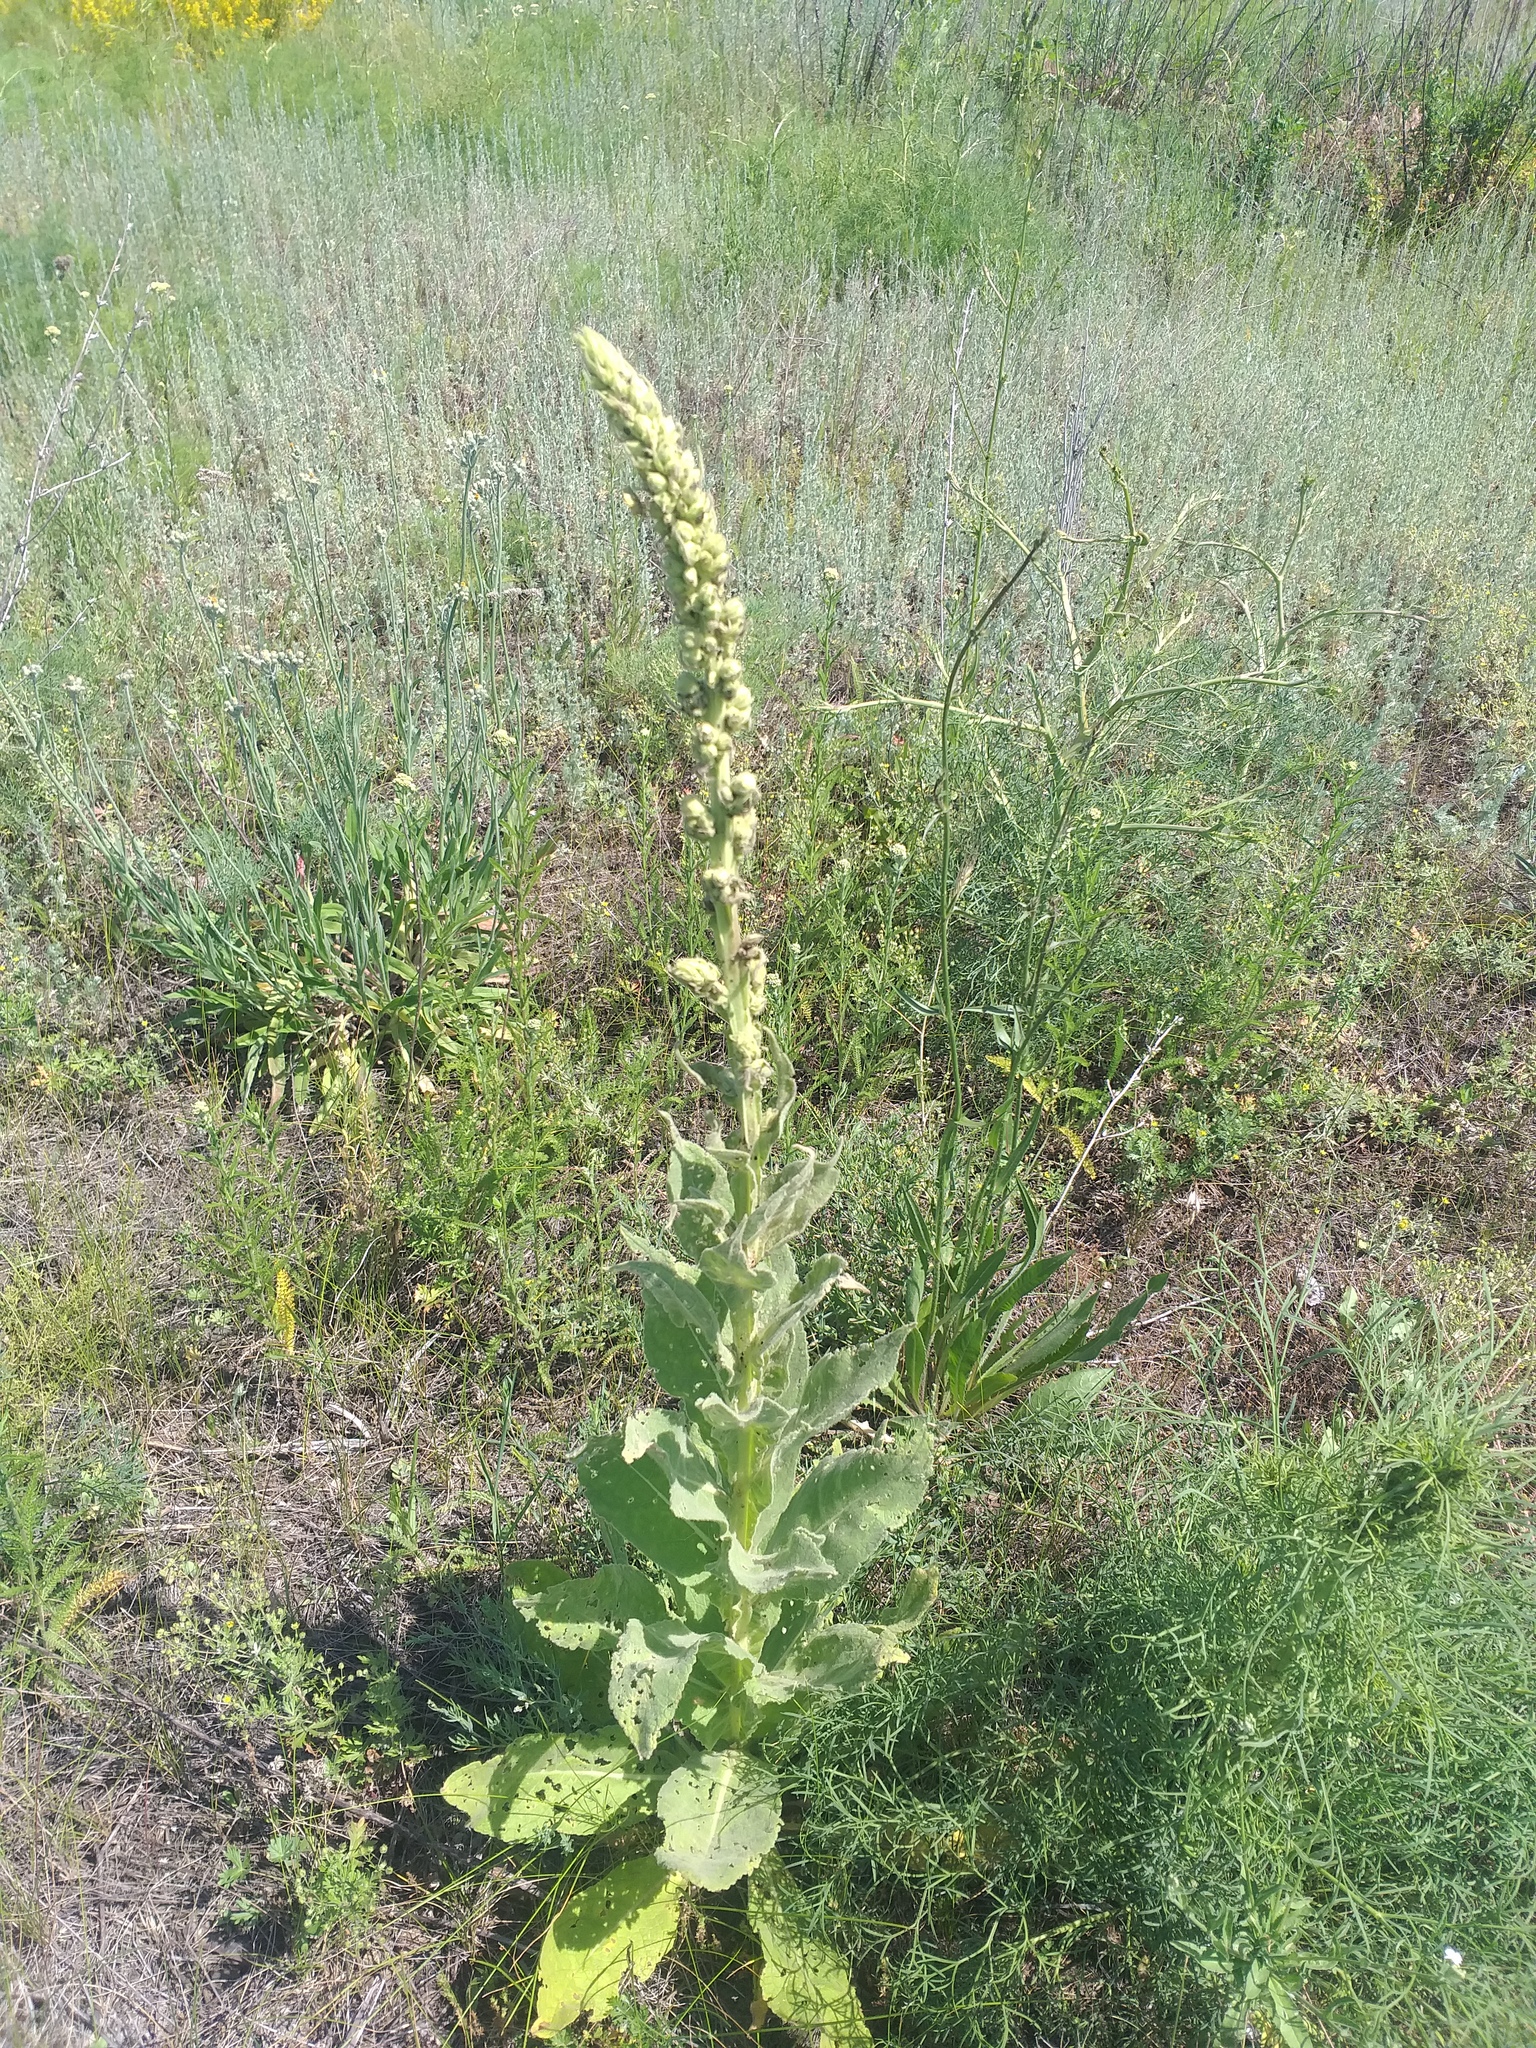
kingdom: Plantae
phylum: Tracheophyta
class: Magnoliopsida
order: Lamiales
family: Scrophulariaceae
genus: Verbascum
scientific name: Verbascum thapsus
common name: Common mullein
